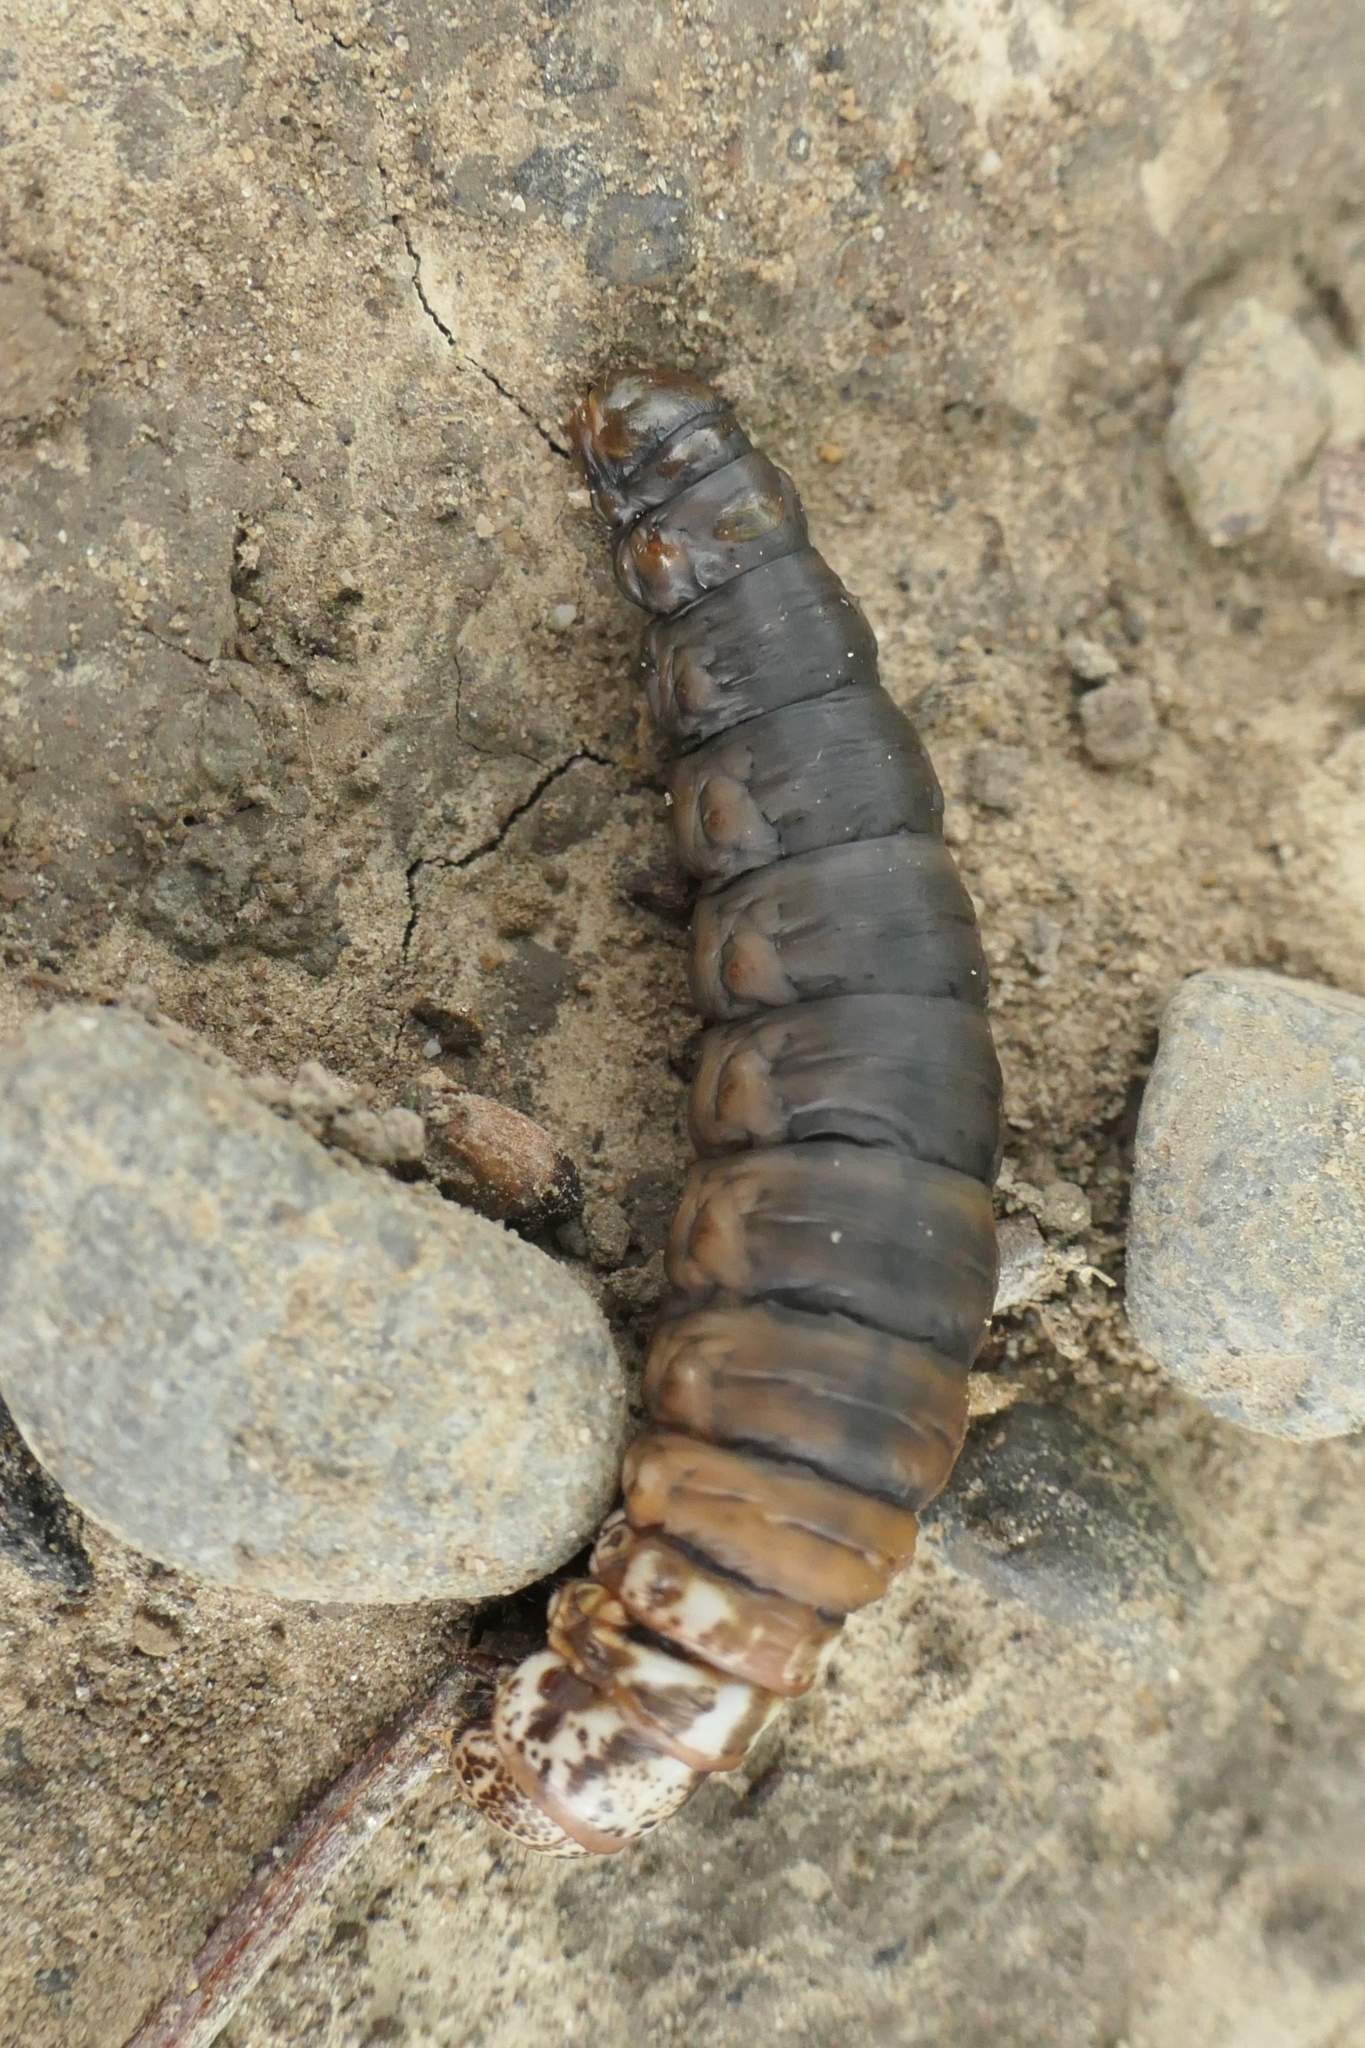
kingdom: Animalia
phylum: Arthropoda
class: Insecta
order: Lepidoptera
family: Psychidae
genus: Liothula
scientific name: Liothula omnivora
